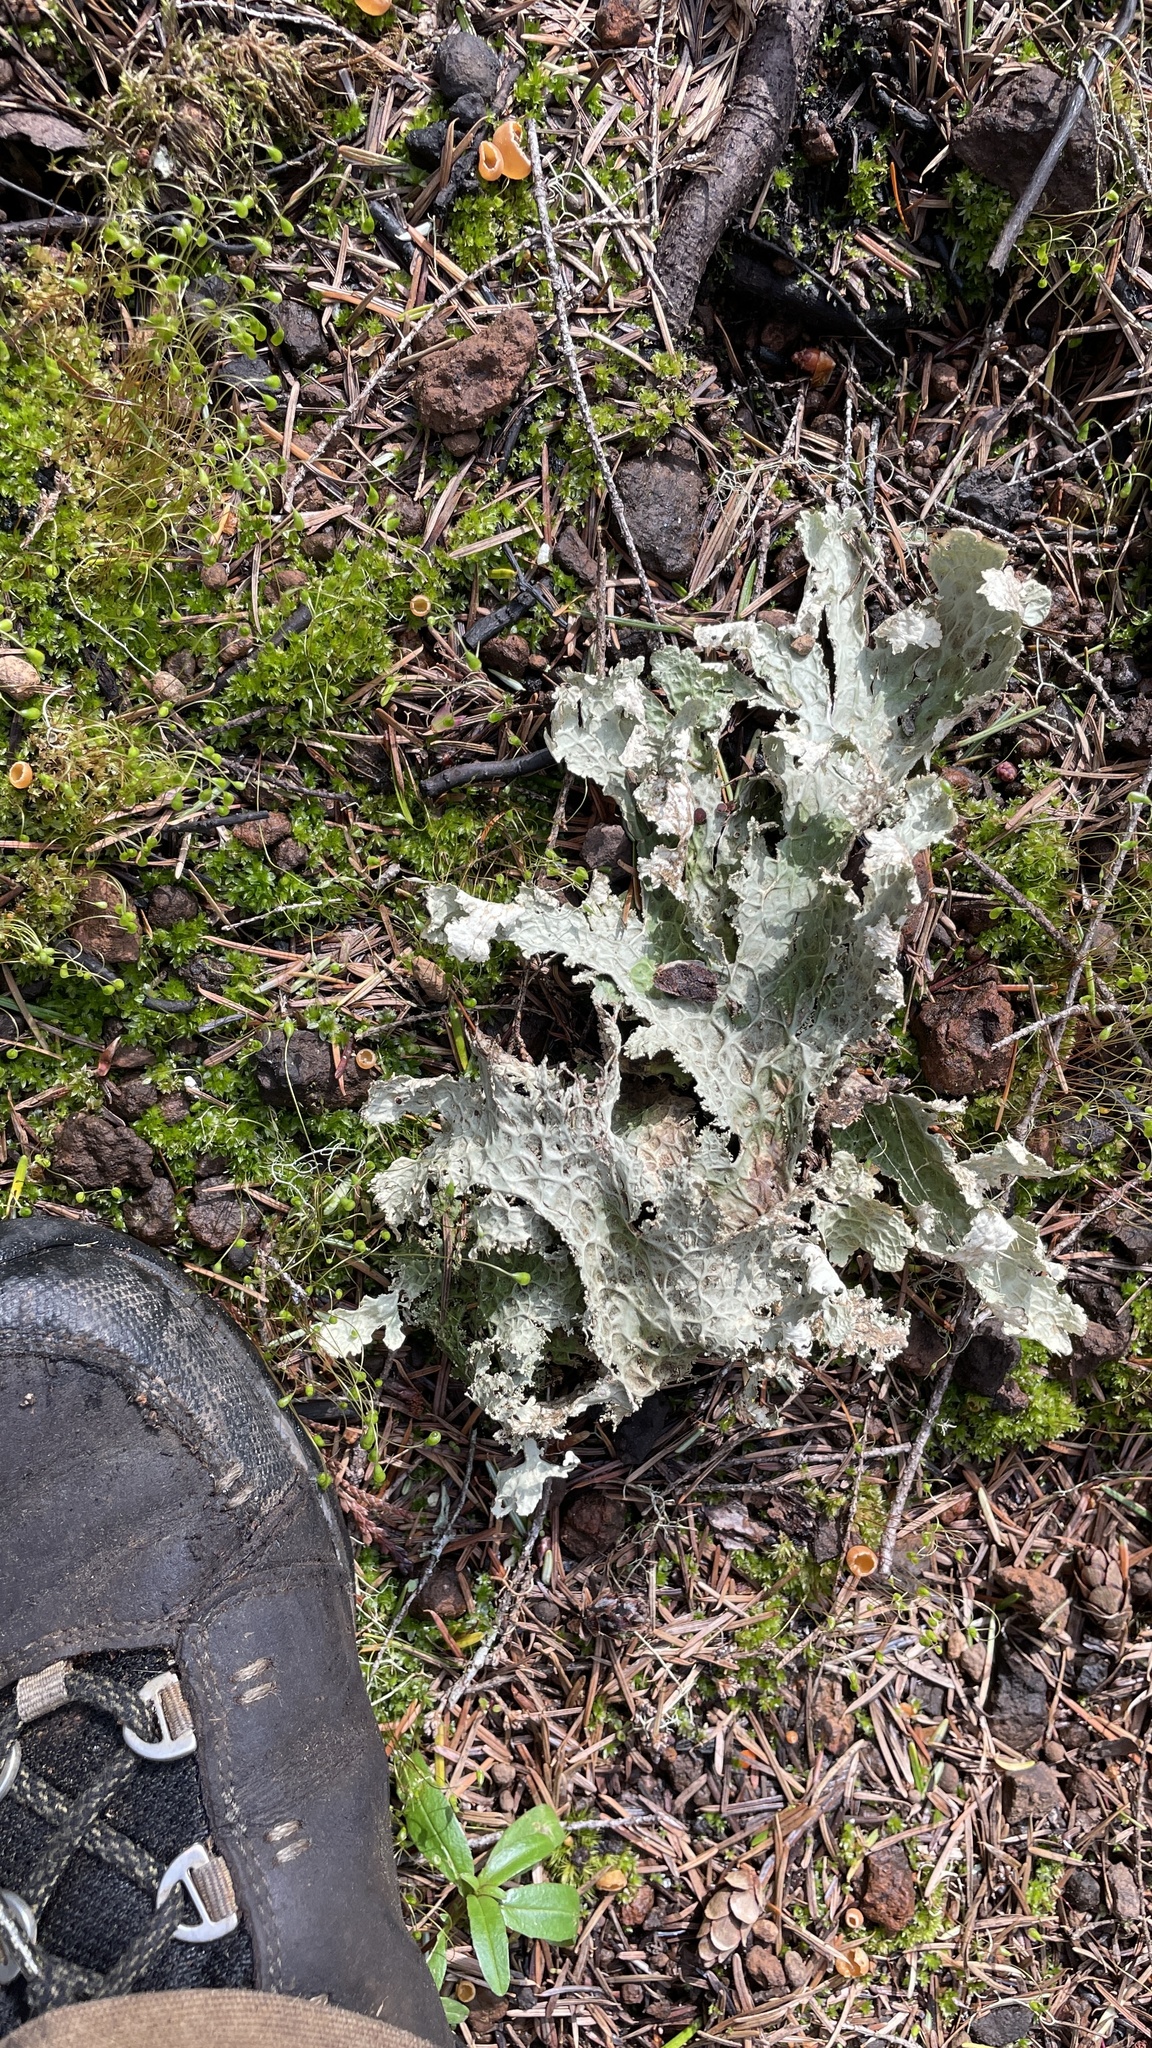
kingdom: Fungi
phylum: Ascomycota
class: Lecanoromycetes
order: Peltigerales
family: Lobariaceae
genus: Lobaria
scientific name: Lobaria oregana
